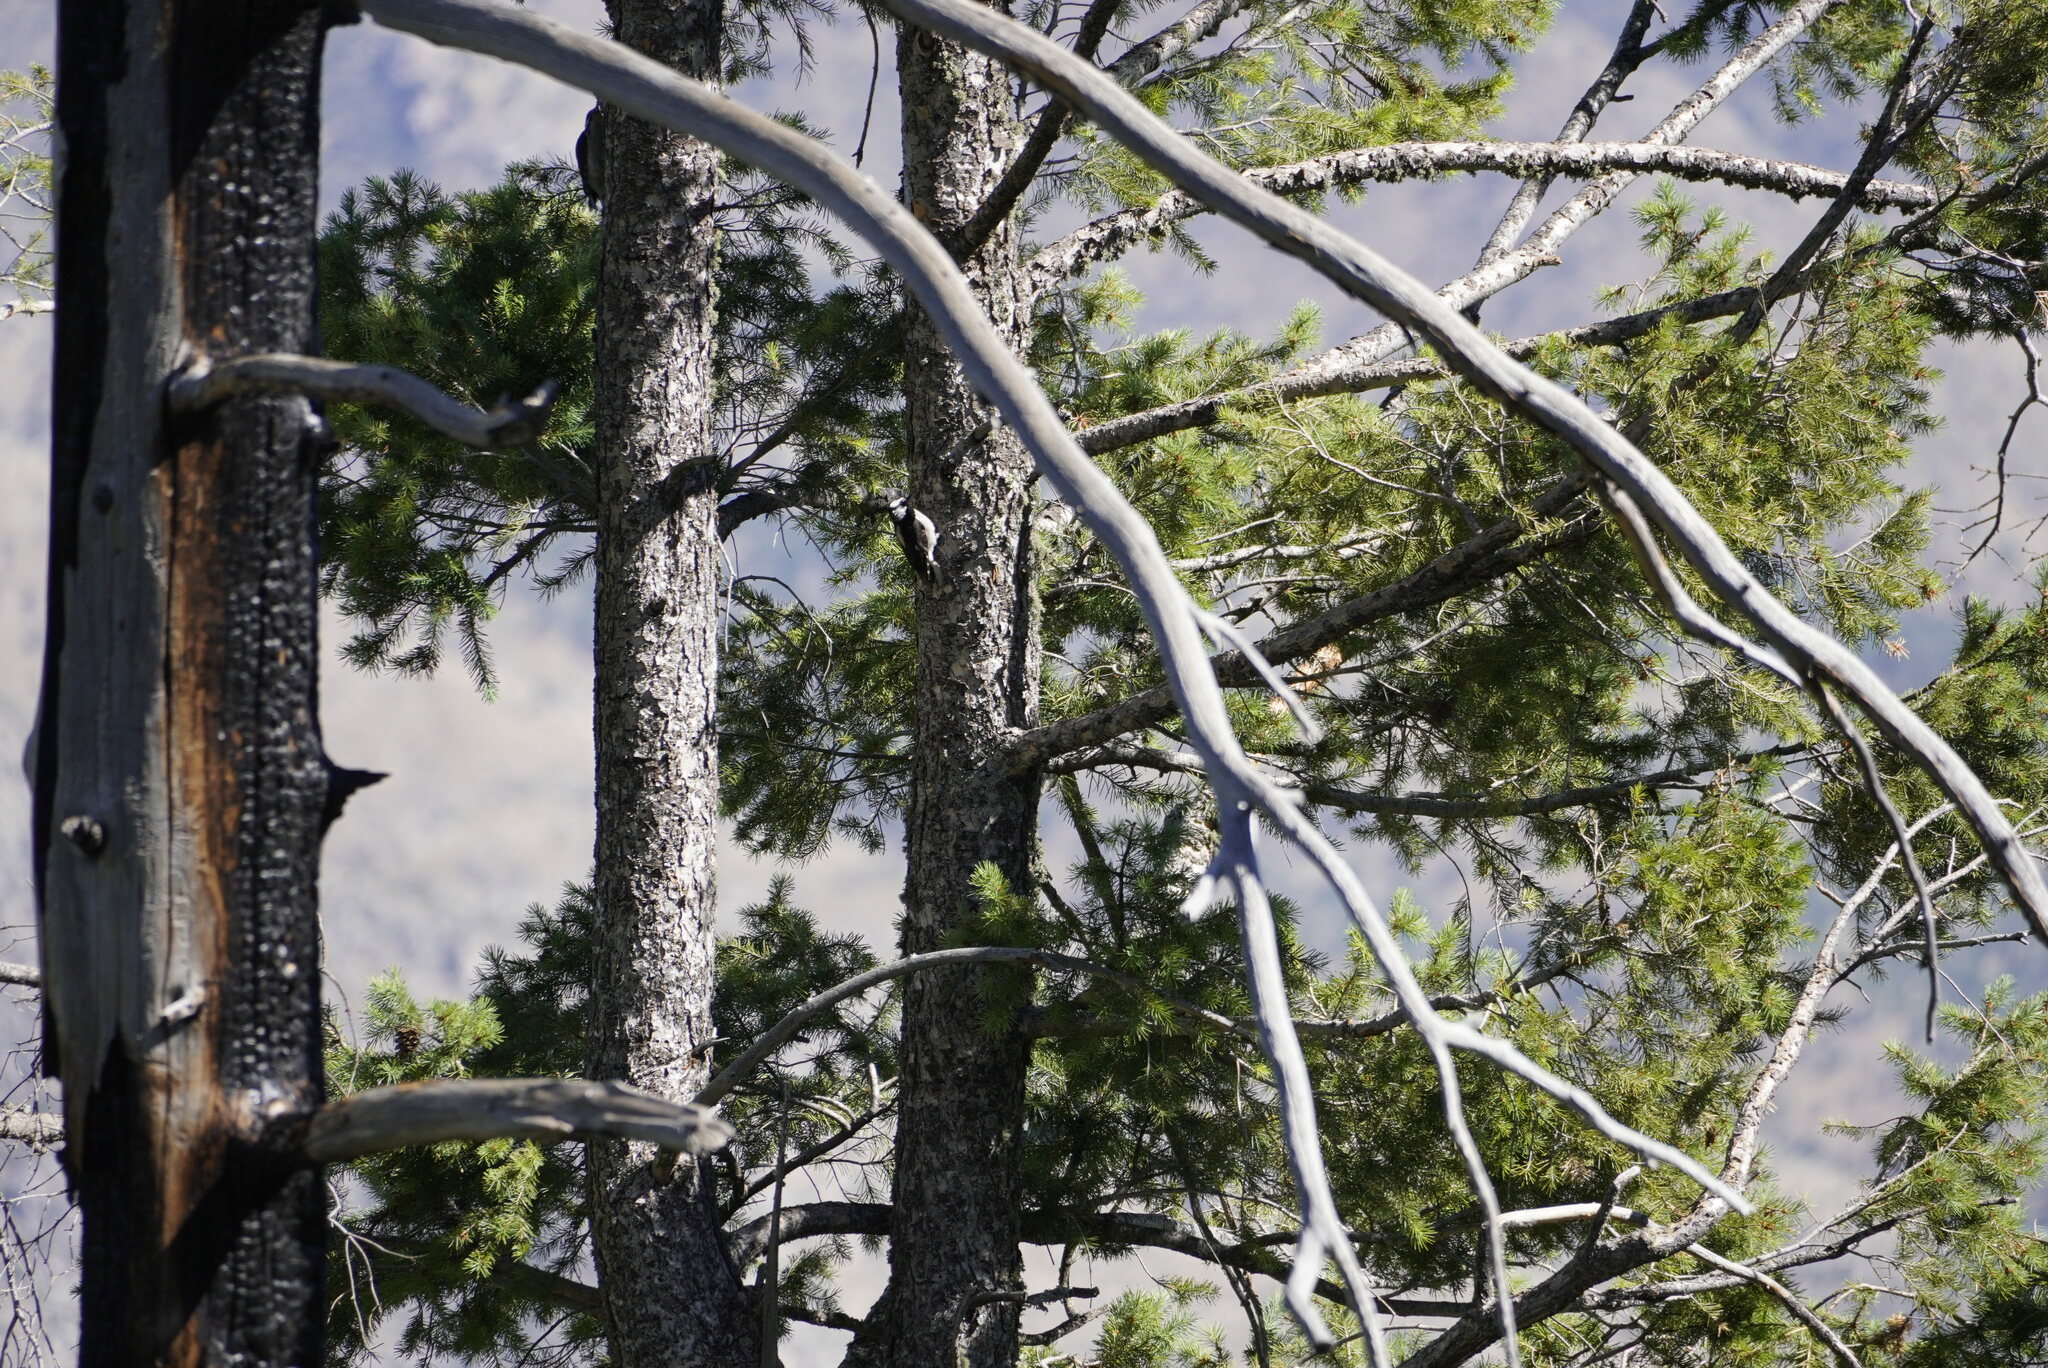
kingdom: Animalia
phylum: Chordata
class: Aves
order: Piciformes
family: Picidae
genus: Leuconotopicus
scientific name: Leuconotopicus villosus
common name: Hairy woodpecker
